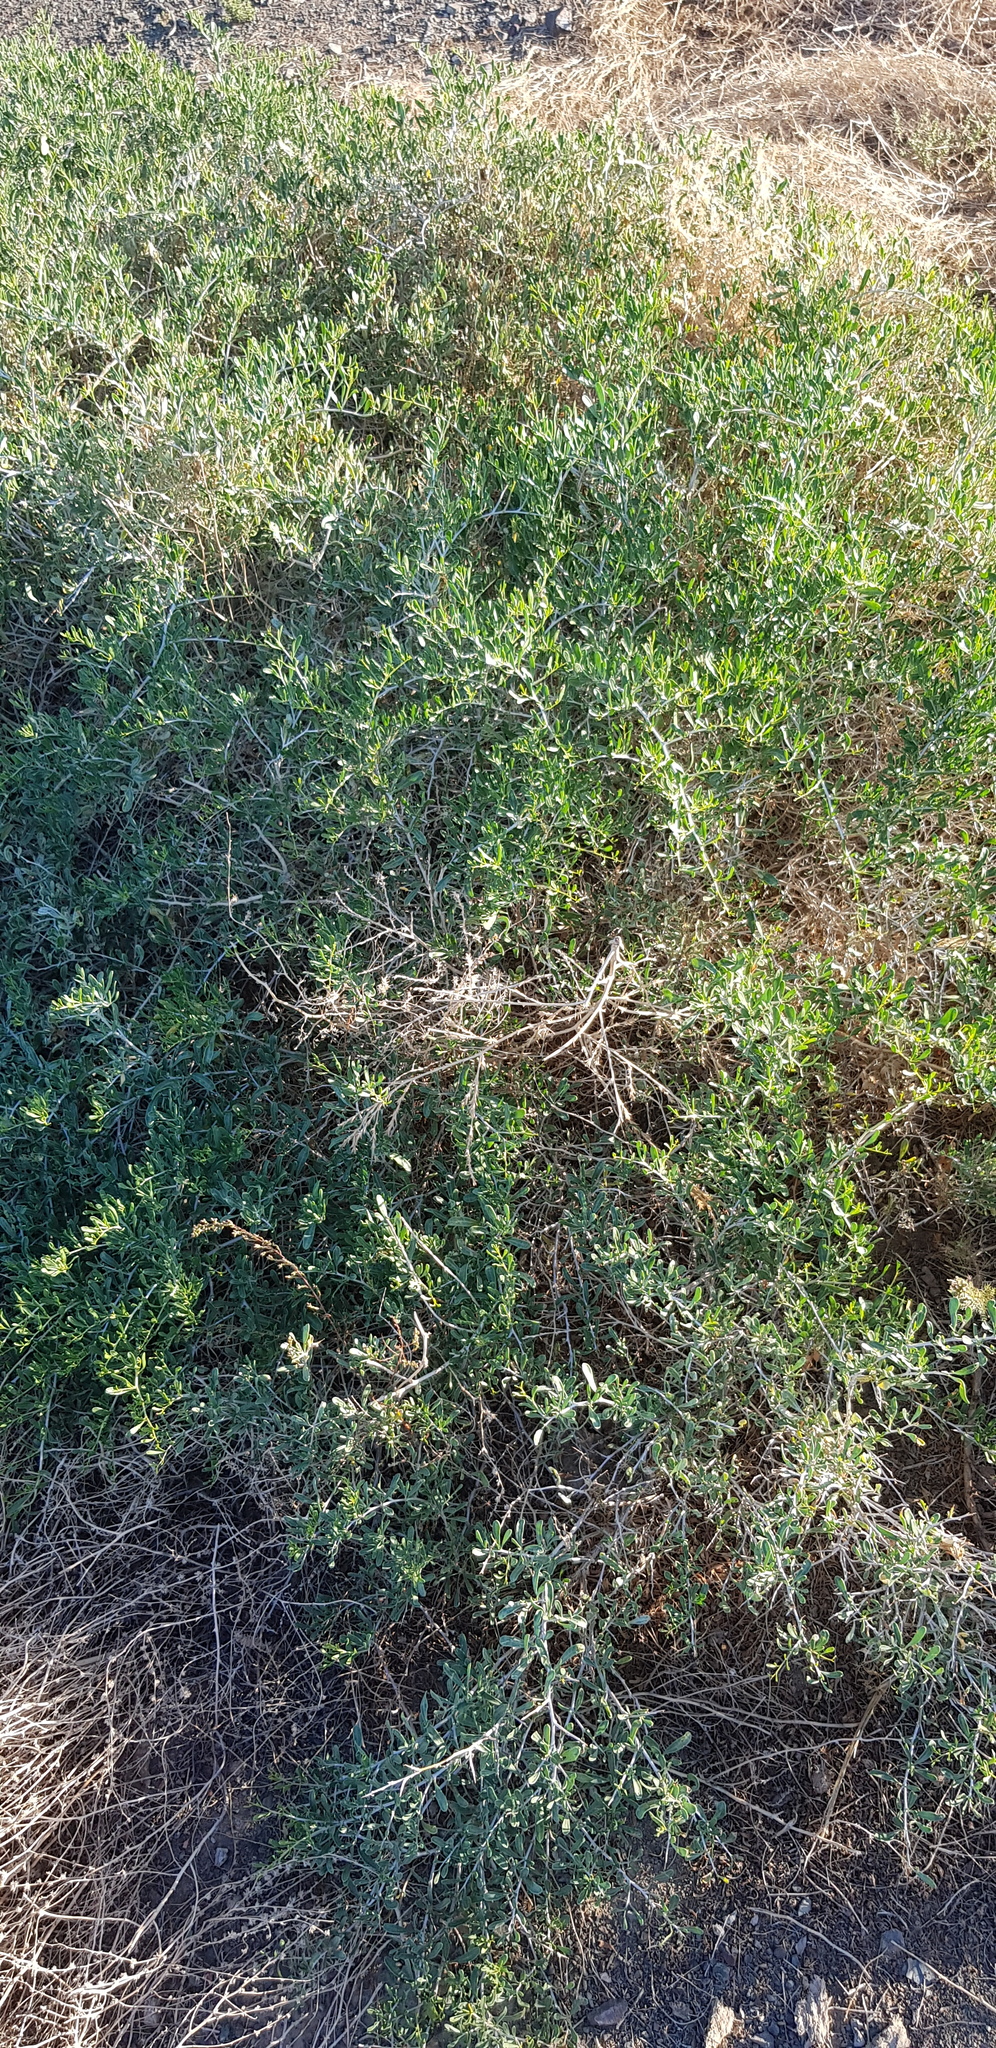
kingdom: Plantae
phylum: Tracheophyta
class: Magnoliopsida
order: Sapindales
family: Nitrariaceae
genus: Nitraria
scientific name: Nitraria sibirica
